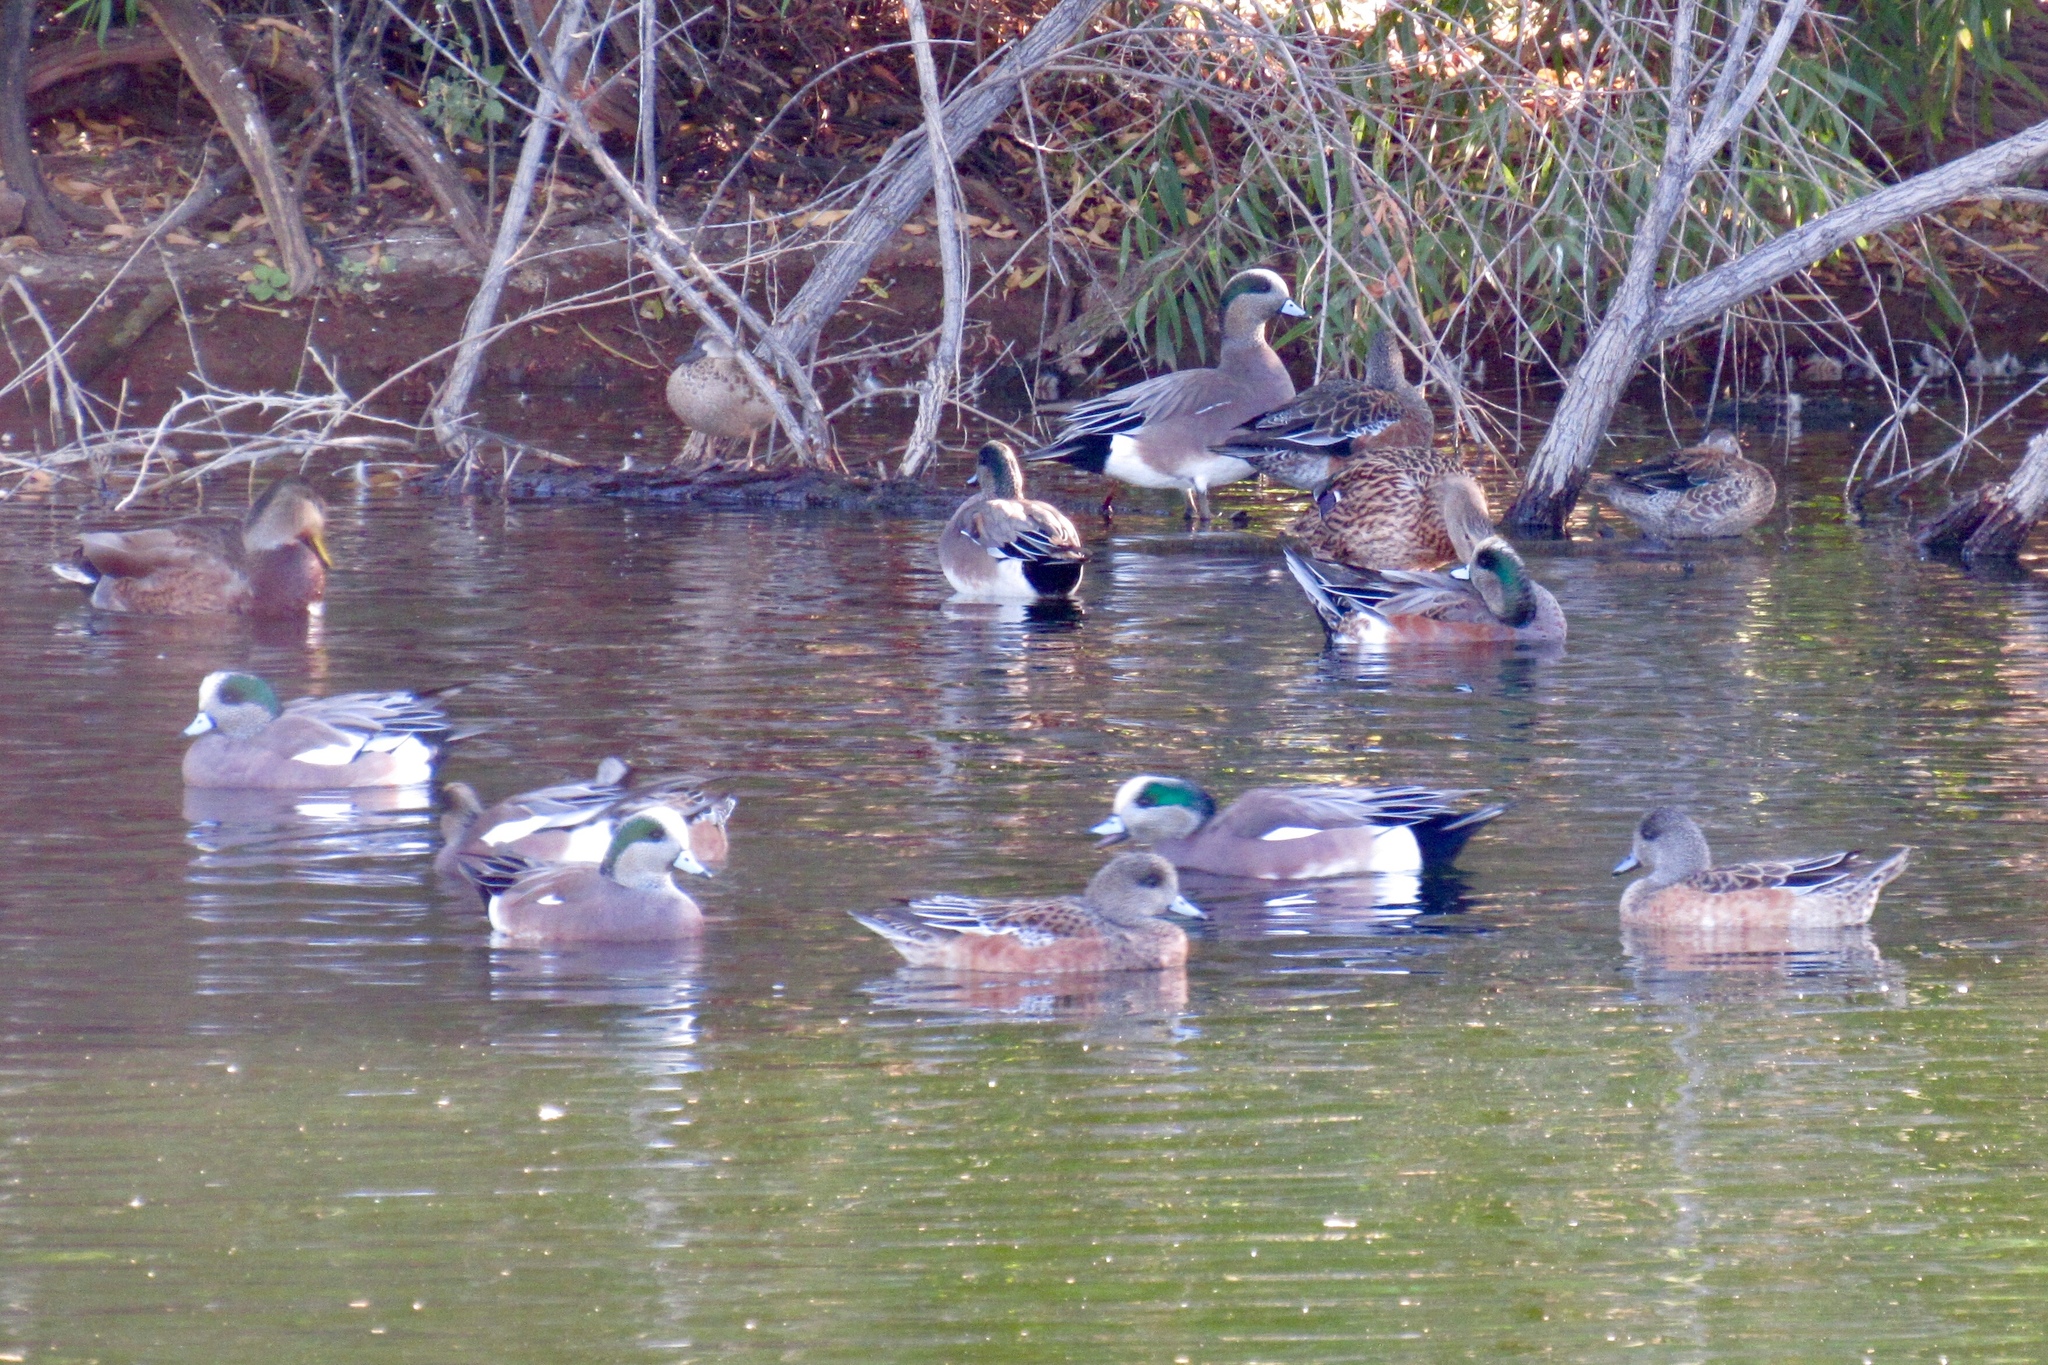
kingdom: Animalia
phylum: Chordata
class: Aves
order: Anseriformes
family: Anatidae
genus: Mareca
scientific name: Mareca americana
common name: American wigeon
